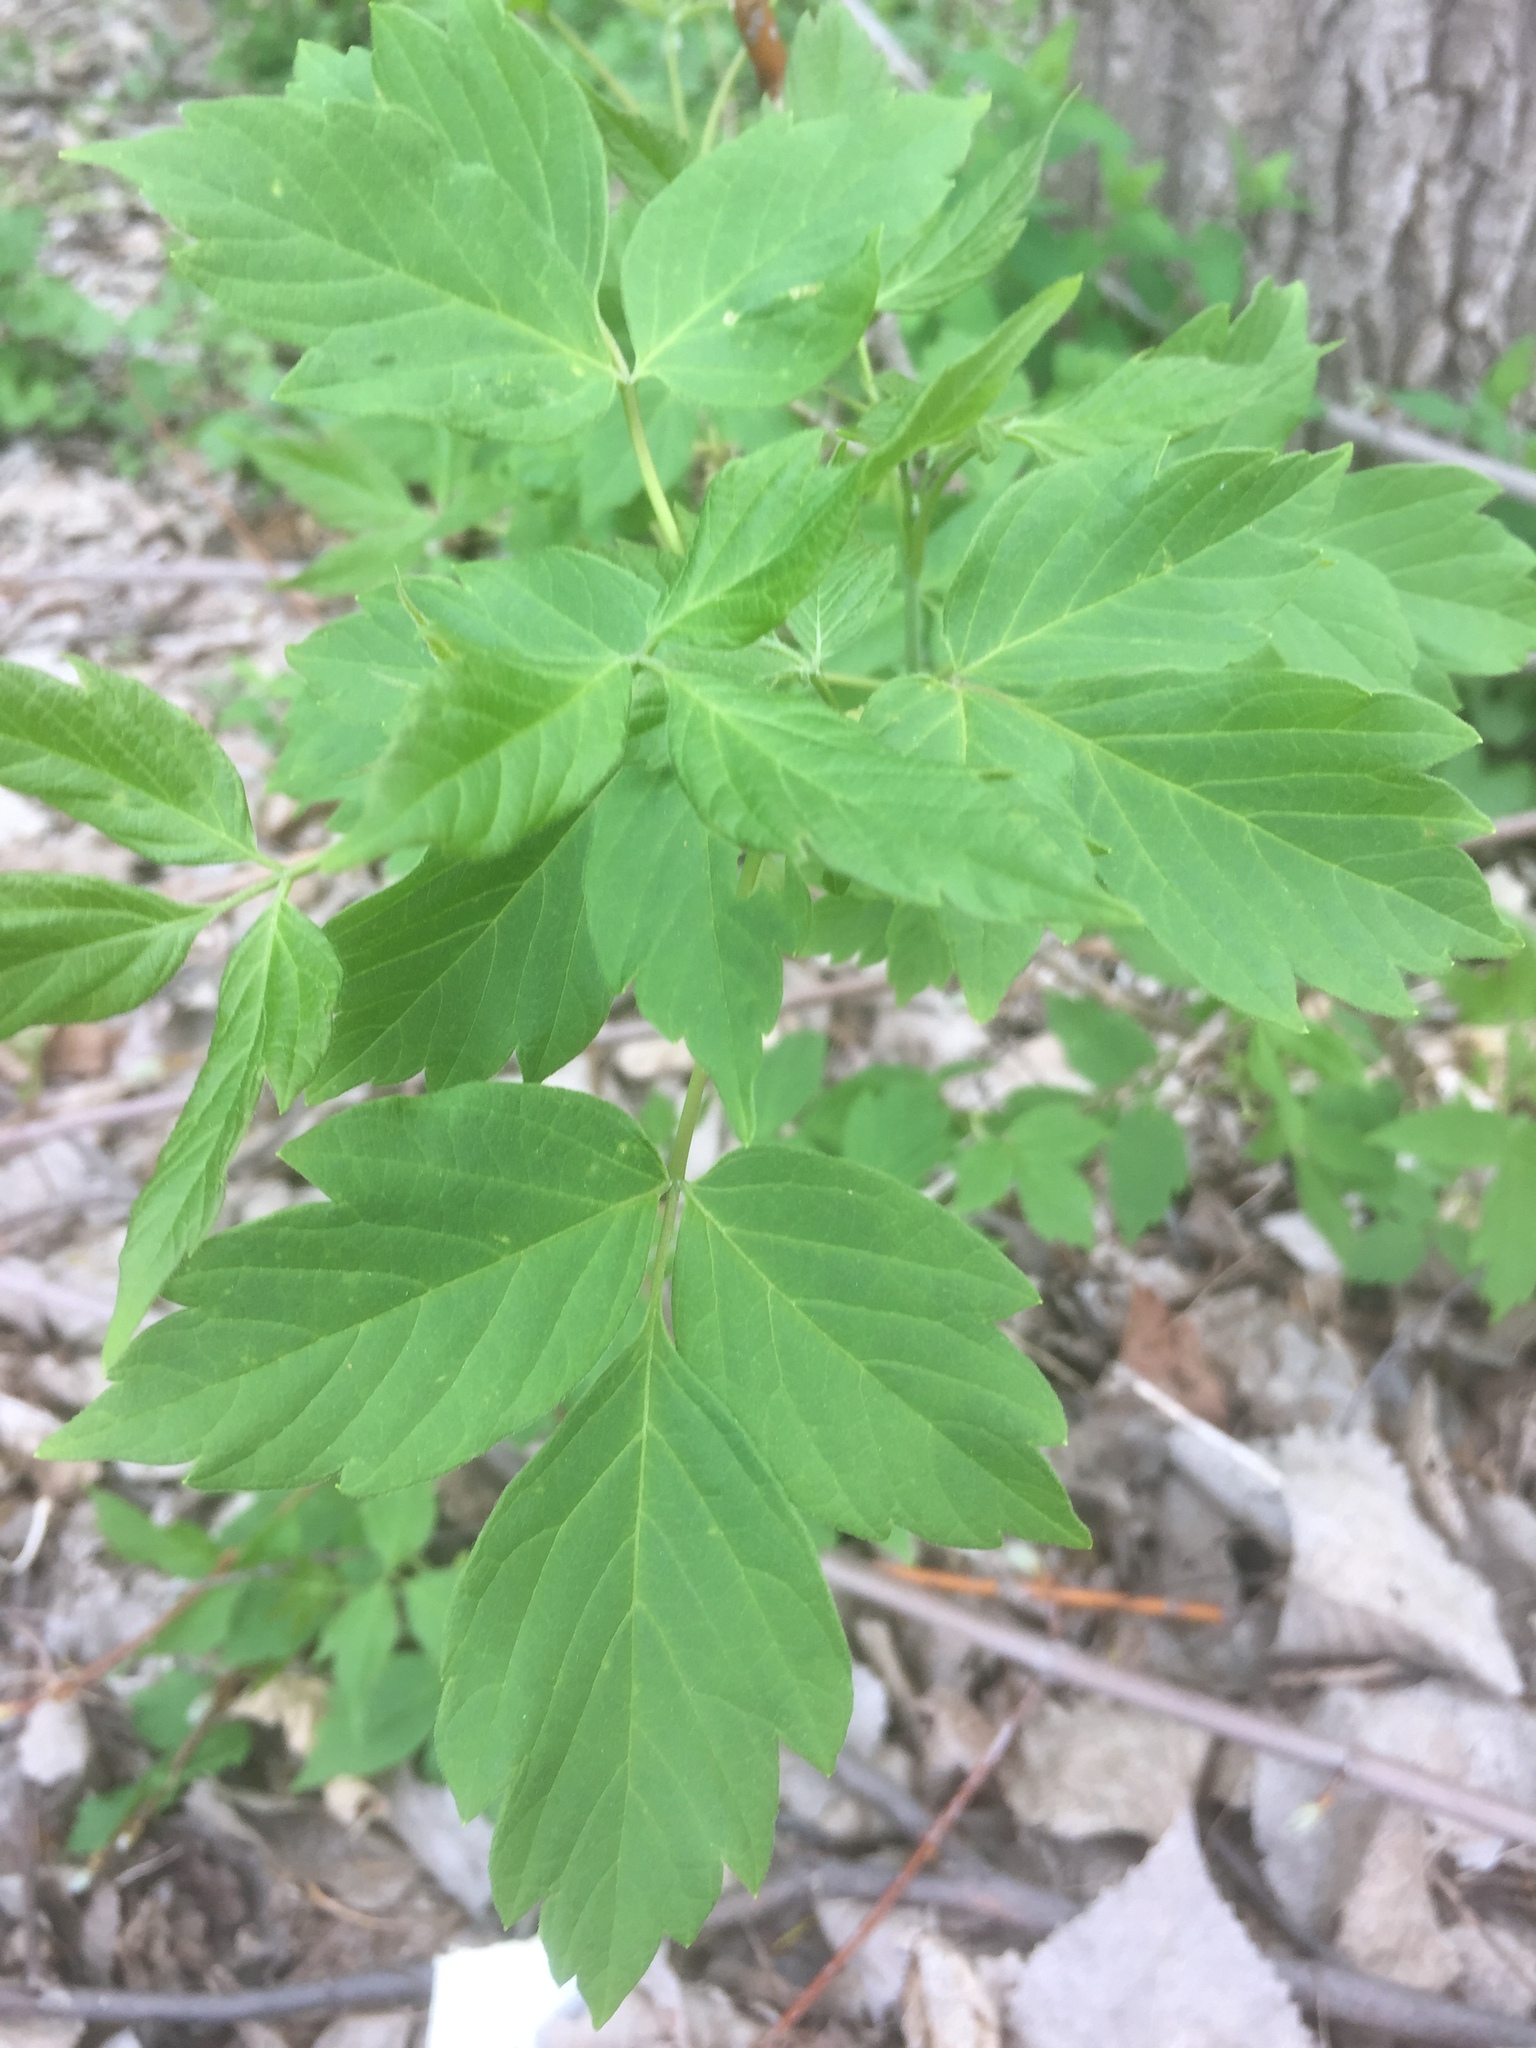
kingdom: Plantae
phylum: Tracheophyta
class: Magnoliopsida
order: Sapindales
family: Sapindaceae
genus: Acer
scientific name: Acer negundo
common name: Ashleaf maple
